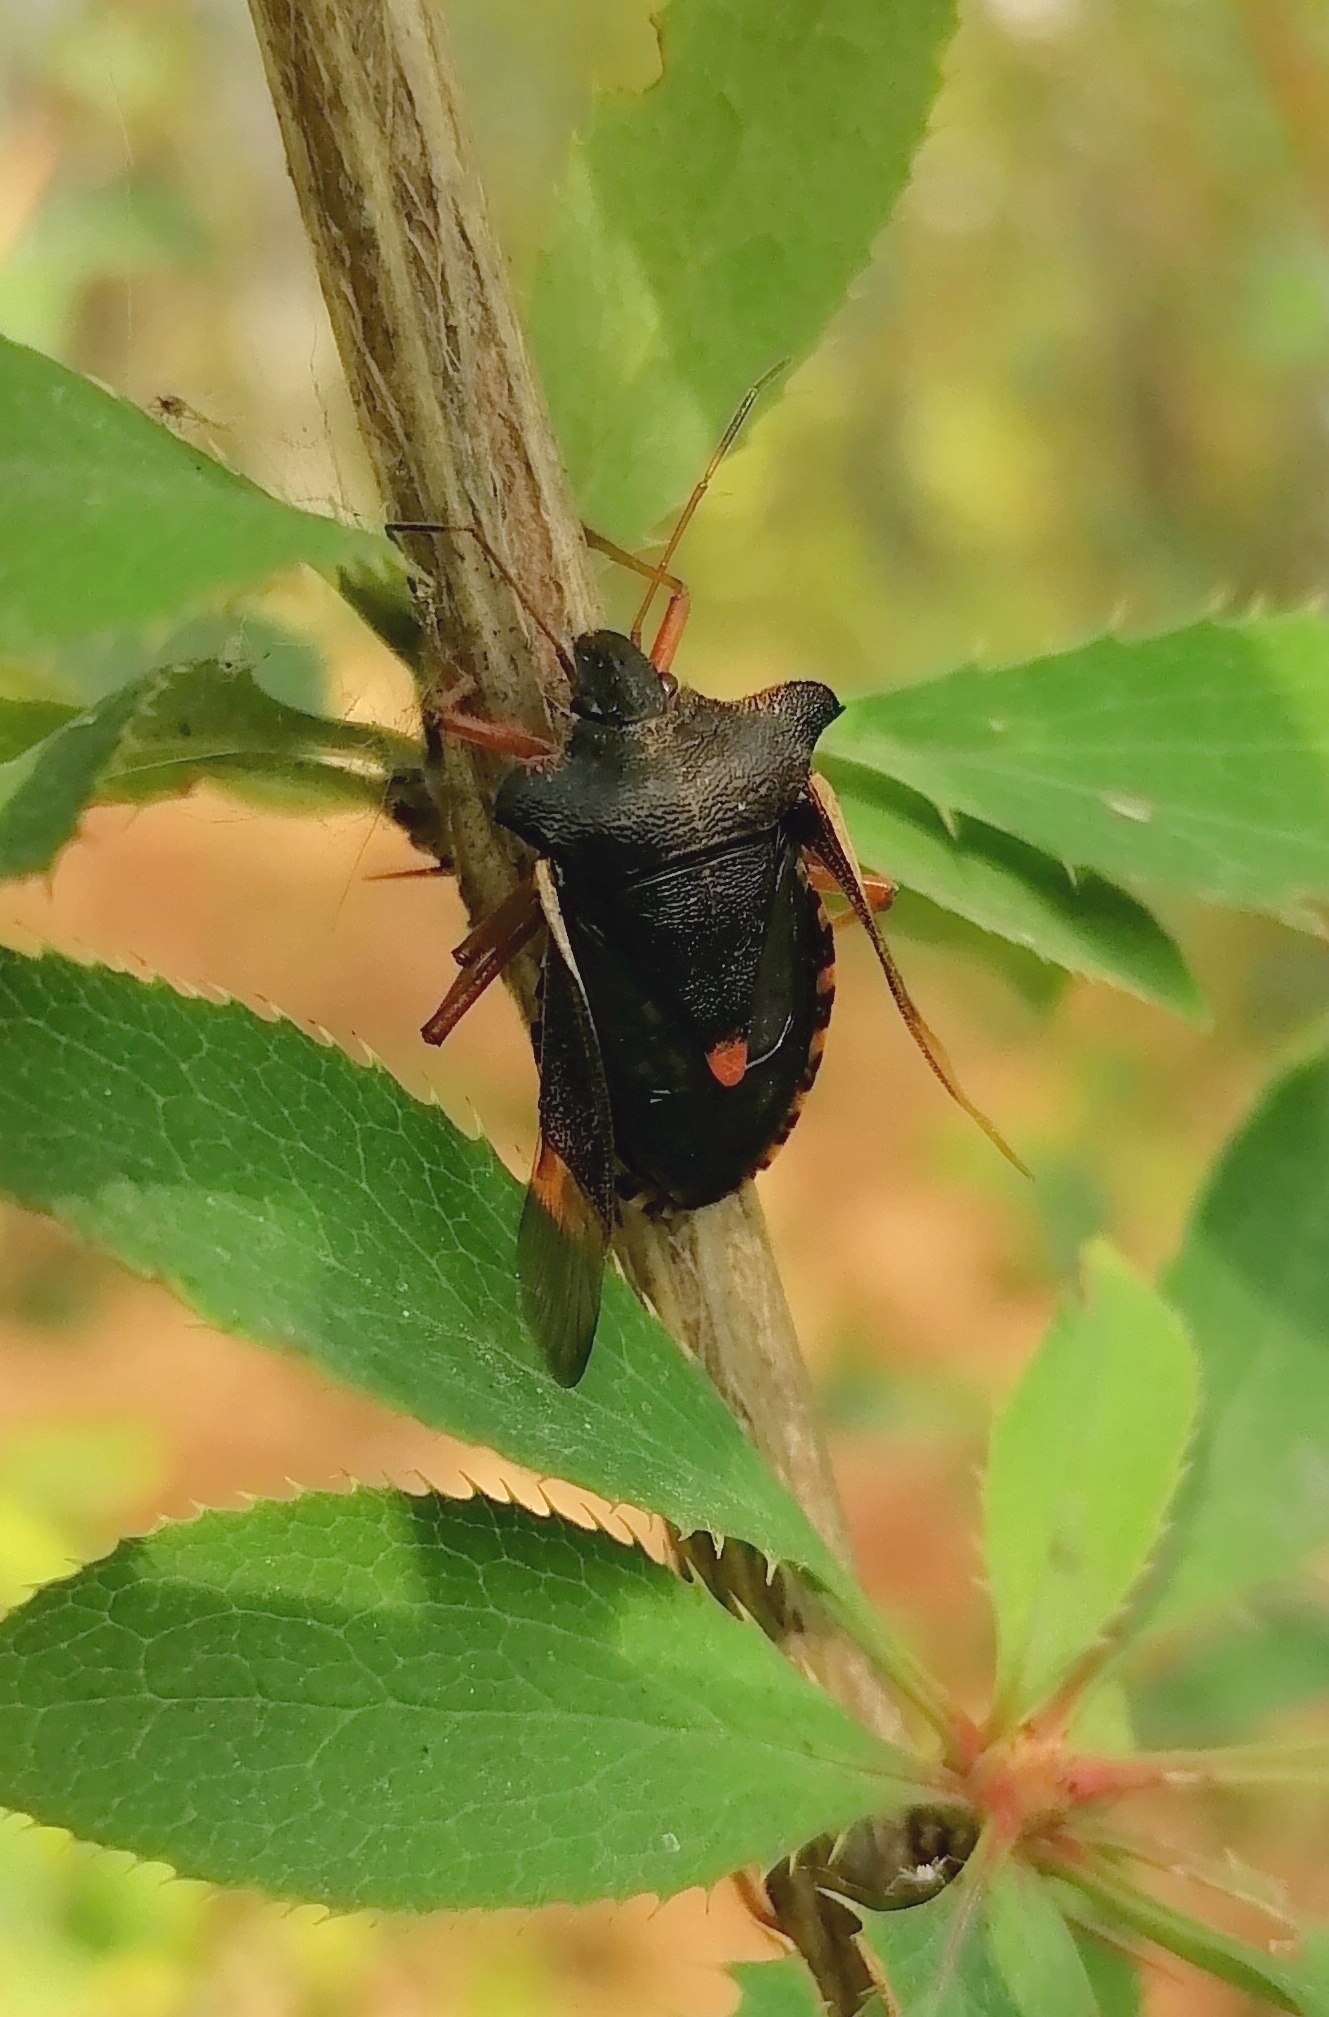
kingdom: Animalia
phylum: Arthropoda
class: Insecta
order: Hemiptera
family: Pentatomidae
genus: Pentatoma
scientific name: Pentatoma rufipes
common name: Forest bug
